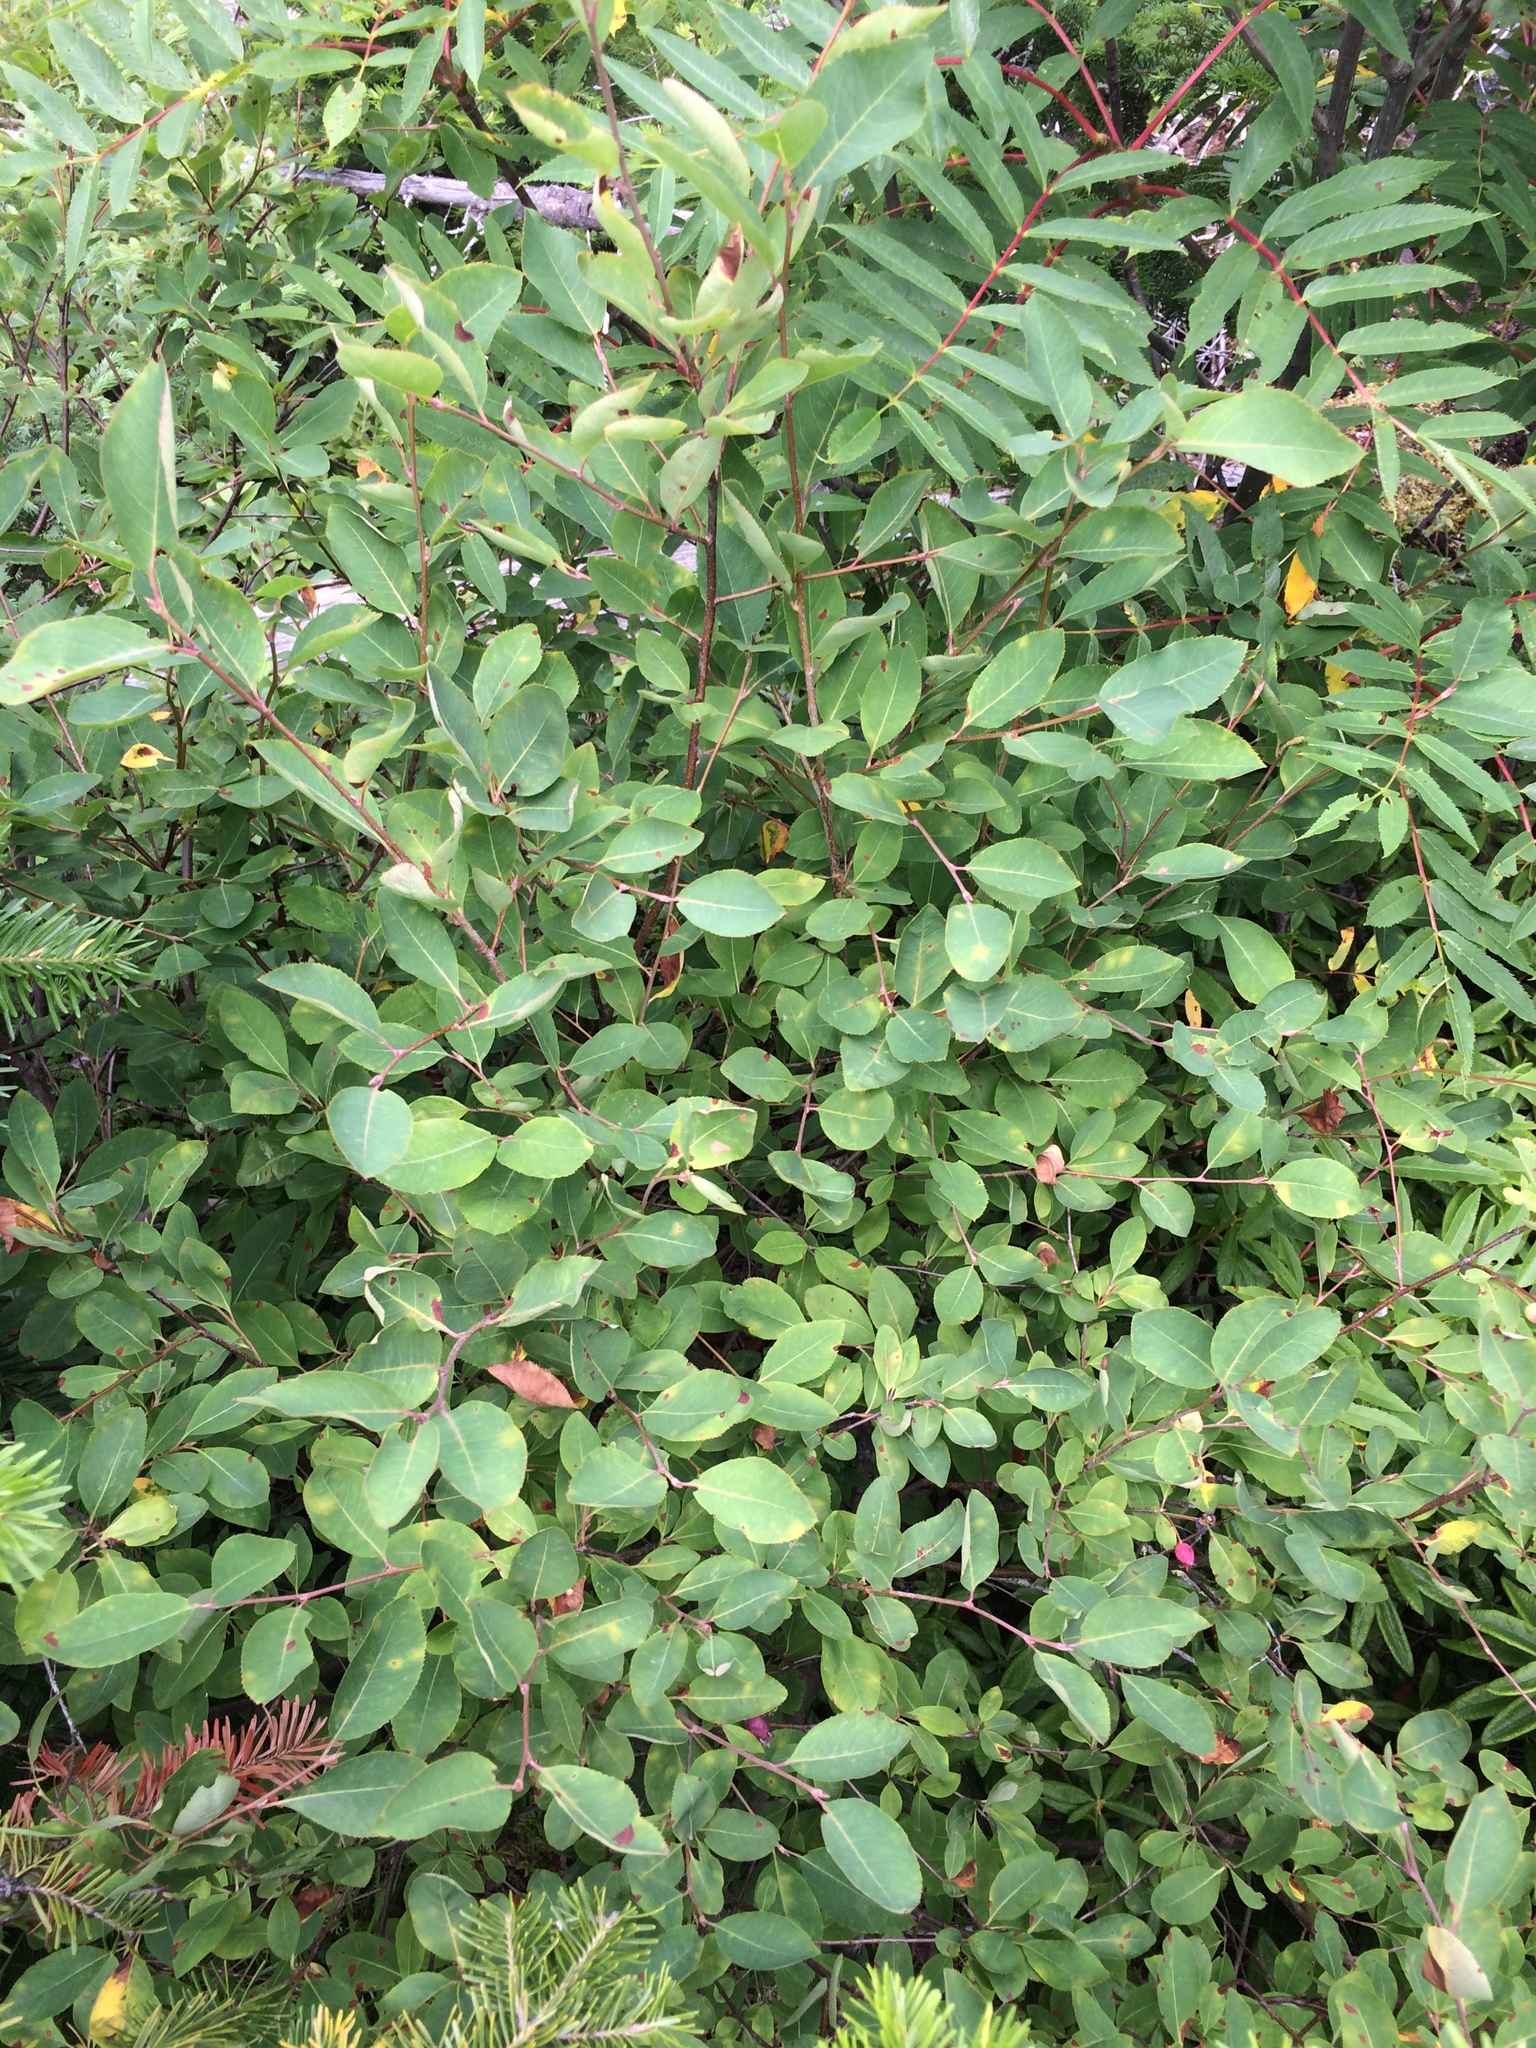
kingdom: Plantae
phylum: Tracheophyta
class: Magnoliopsida
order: Rosales
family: Rosaceae
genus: Amelanchier
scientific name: Amelanchier bartramiana
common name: Mountain serviceberry
